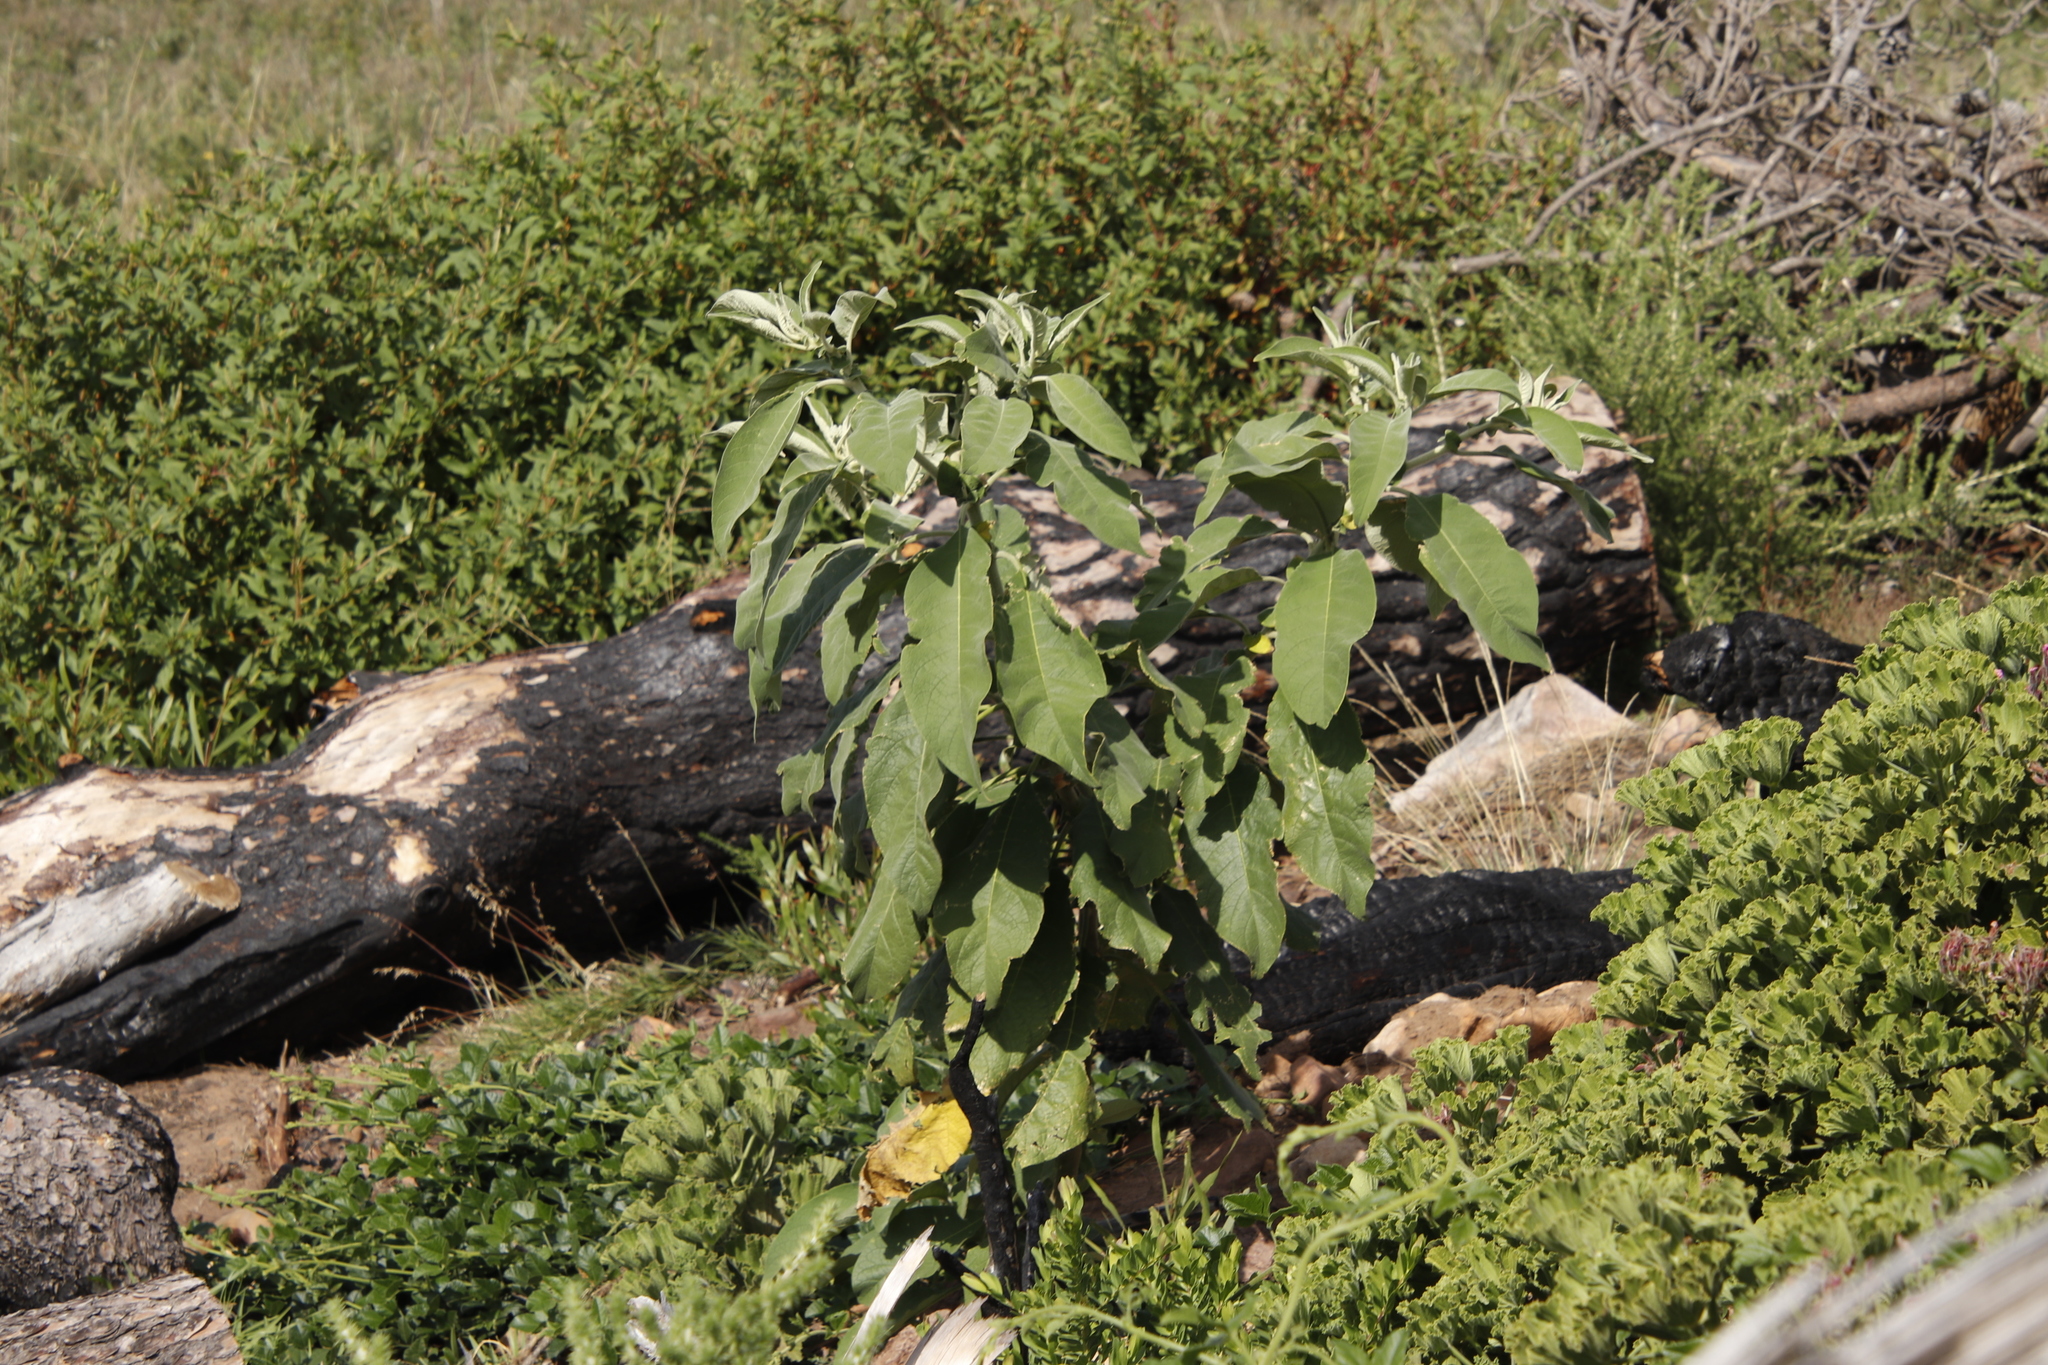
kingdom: Plantae
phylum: Tracheophyta
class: Magnoliopsida
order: Solanales
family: Solanaceae
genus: Solanum
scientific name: Solanum mauritianum
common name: Earleaf nightshade
